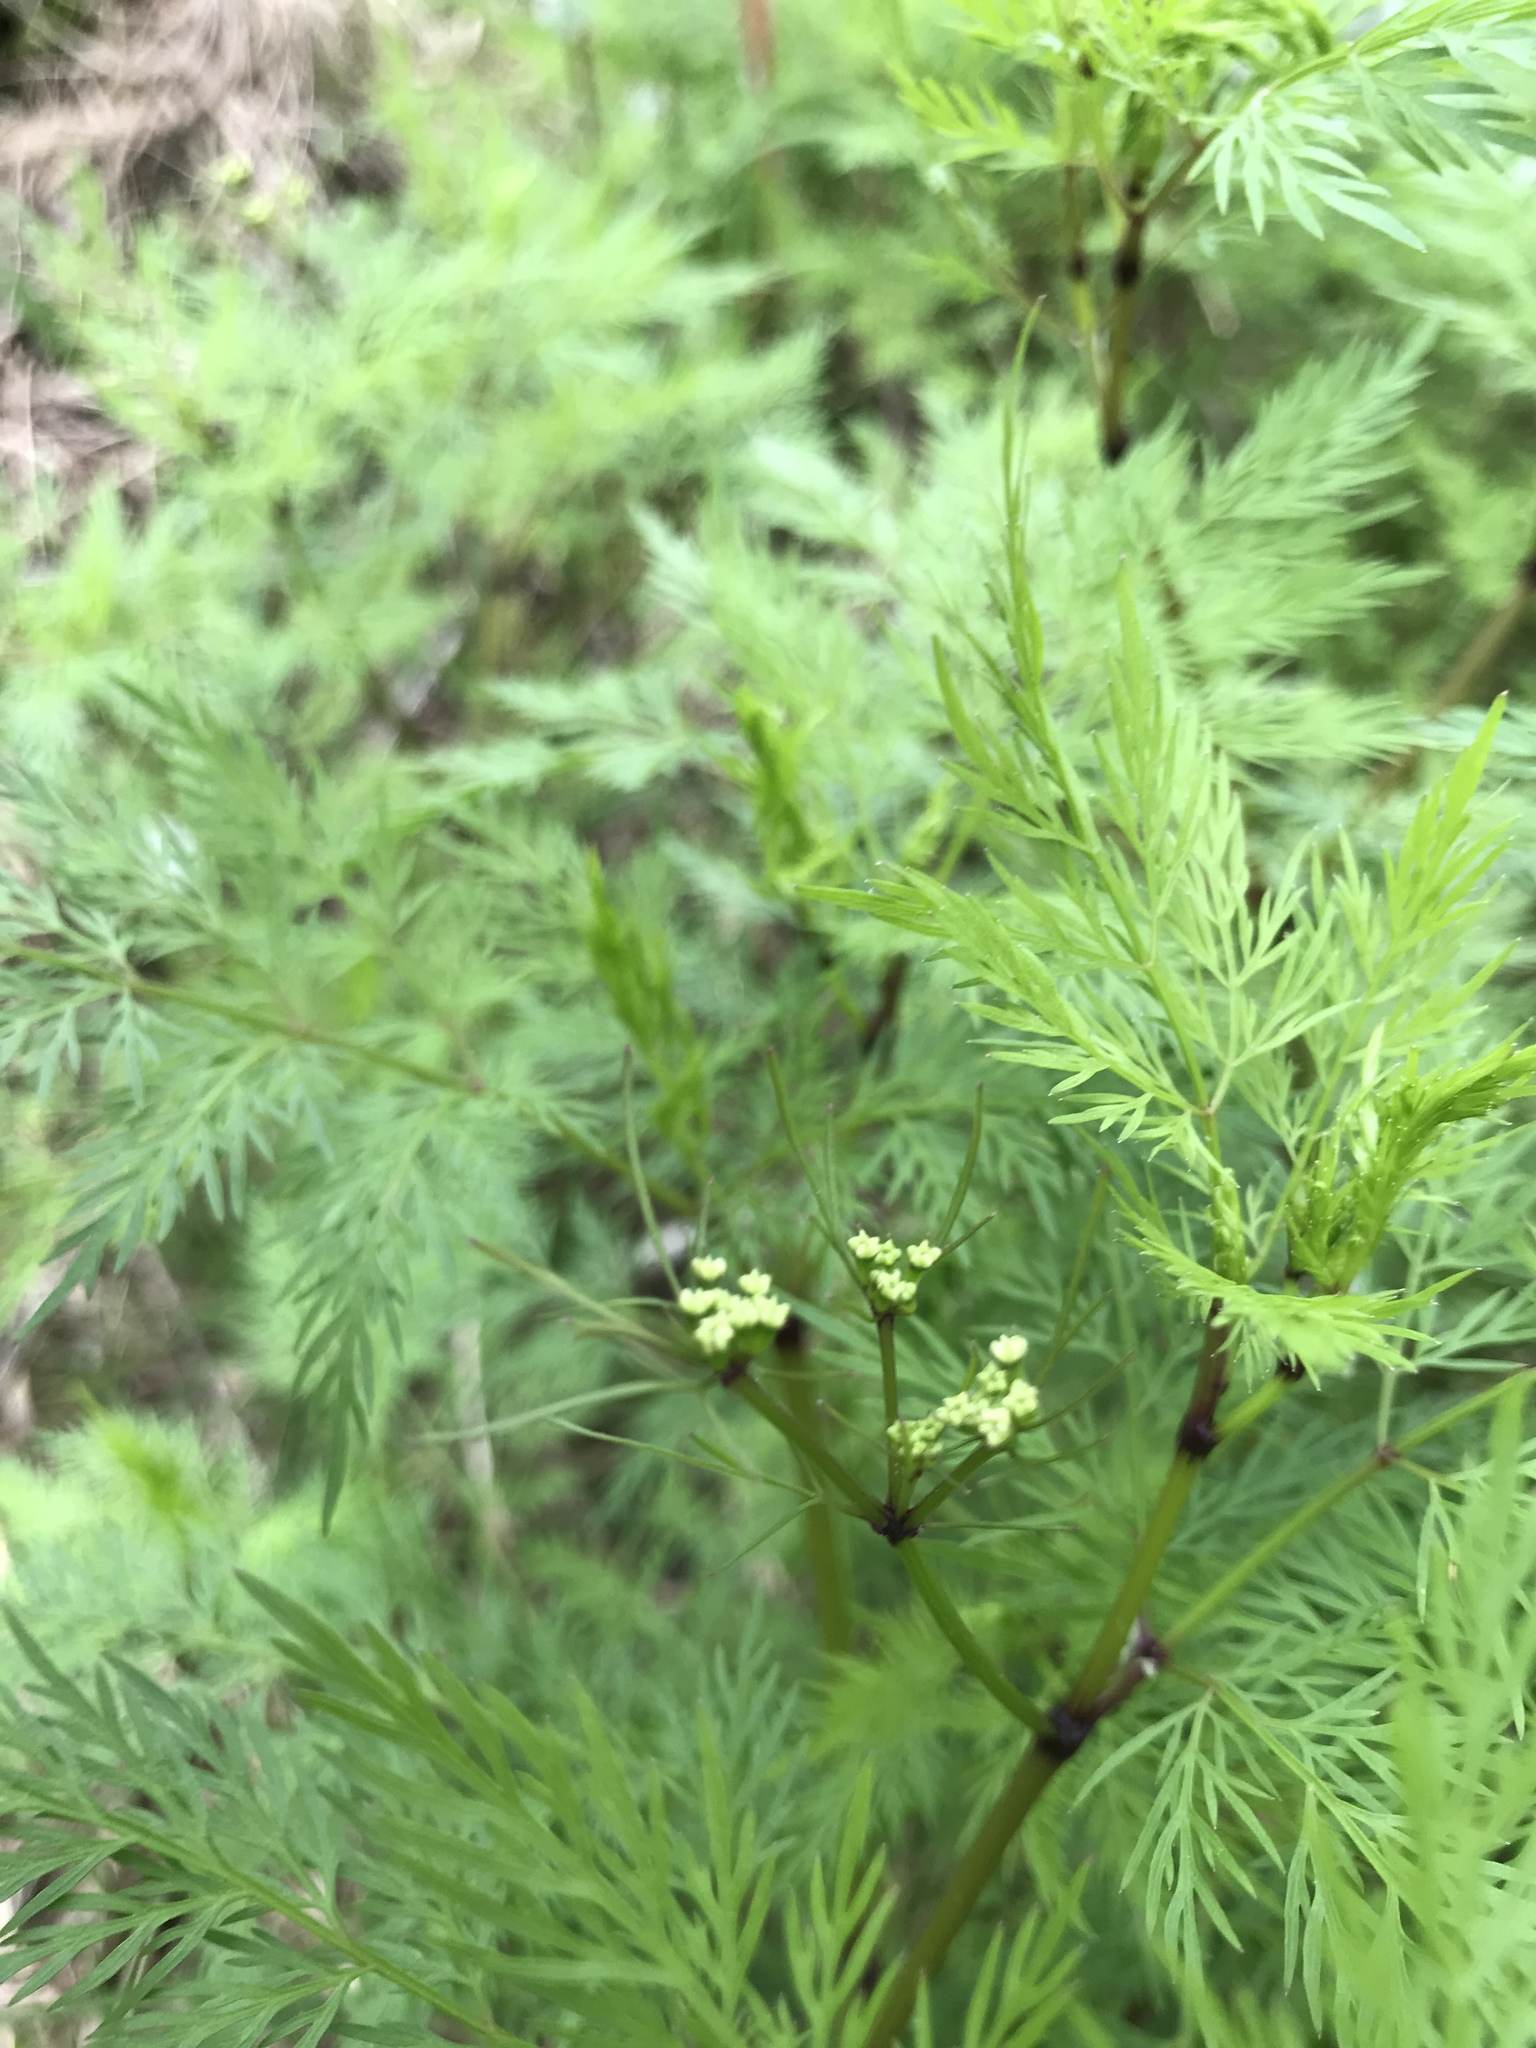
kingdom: Plantae
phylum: Tracheophyta
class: Magnoliopsida
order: Apiales
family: Apiaceae
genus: Trepocarpus
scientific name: Trepocarpus aethusae
